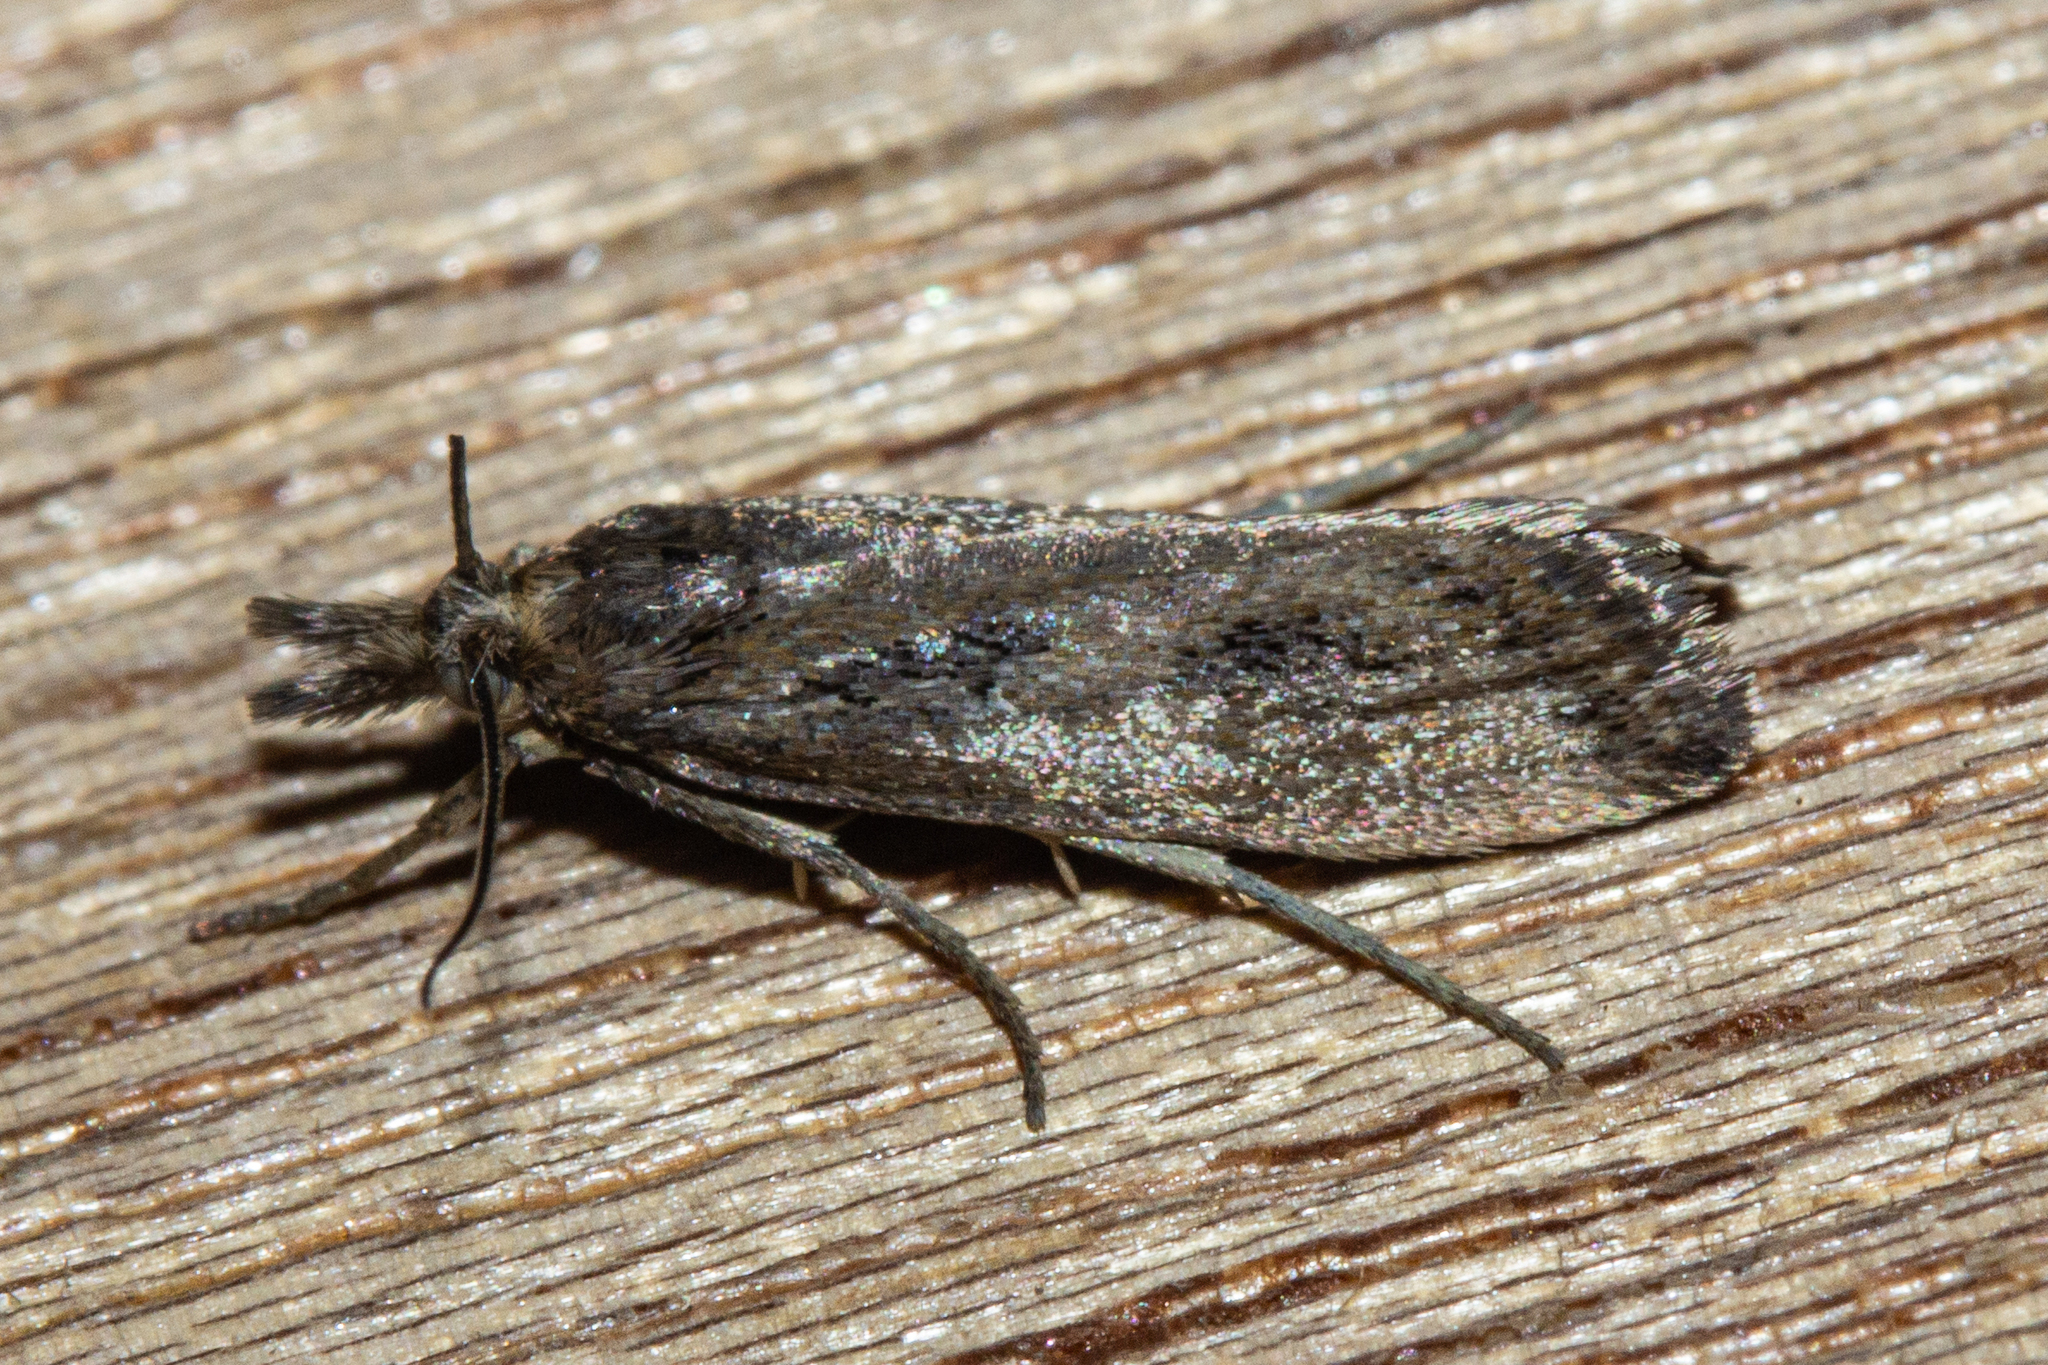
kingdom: Animalia
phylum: Arthropoda
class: Insecta
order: Lepidoptera
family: Crambidae
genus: Orocrambus
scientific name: Orocrambus corruptus
